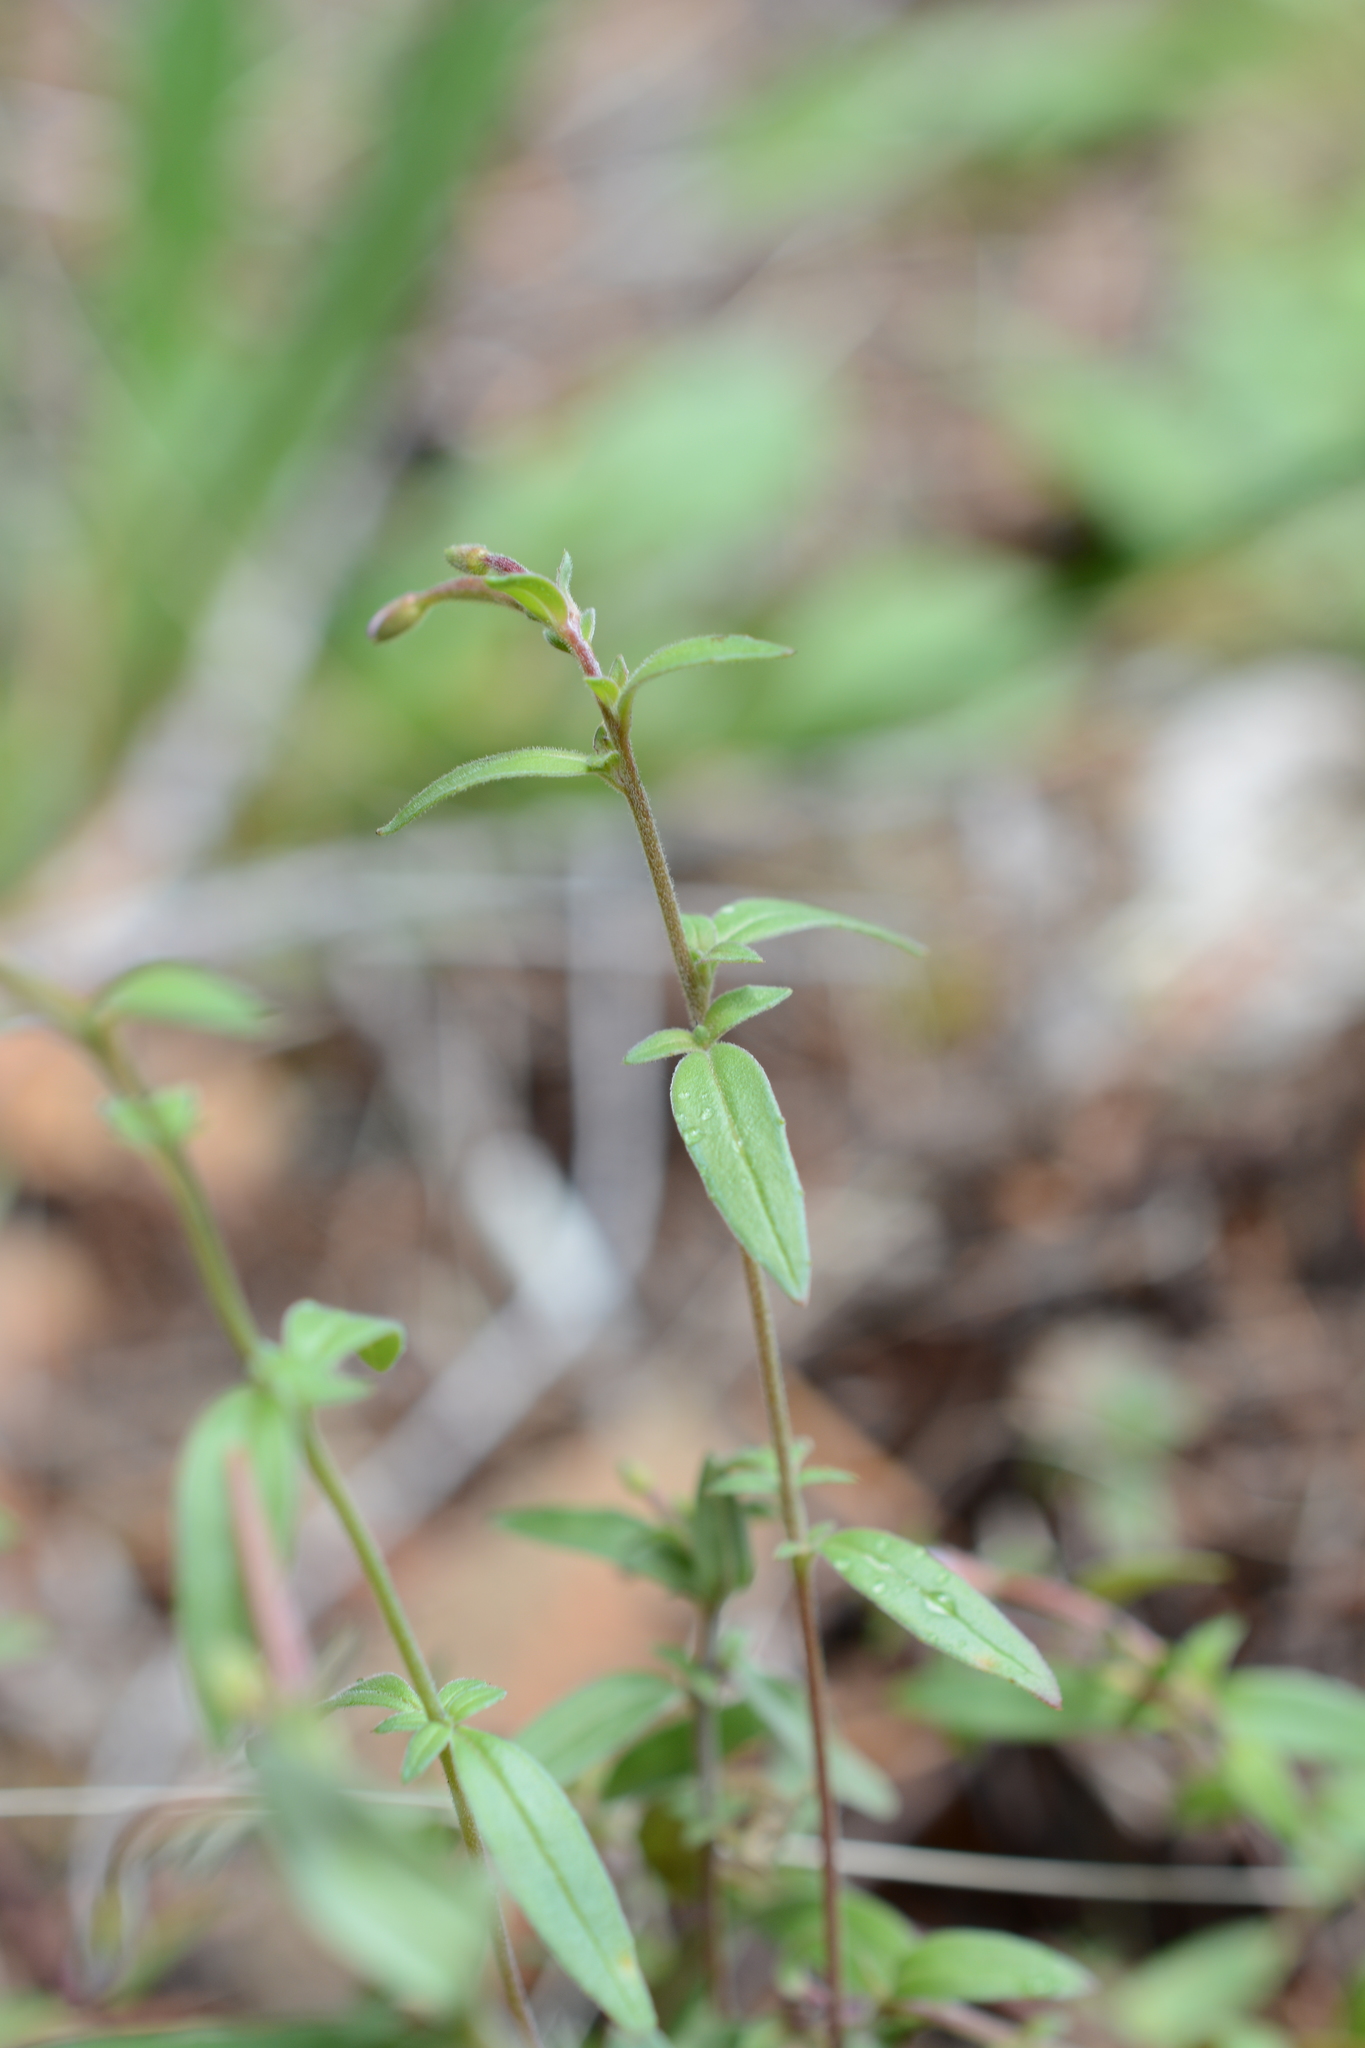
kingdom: Plantae
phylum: Tracheophyta
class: Magnoliopsida
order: Myrtales
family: Onagraceae
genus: Epilobium
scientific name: Epilobium minutum
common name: Chaparral willowherb
